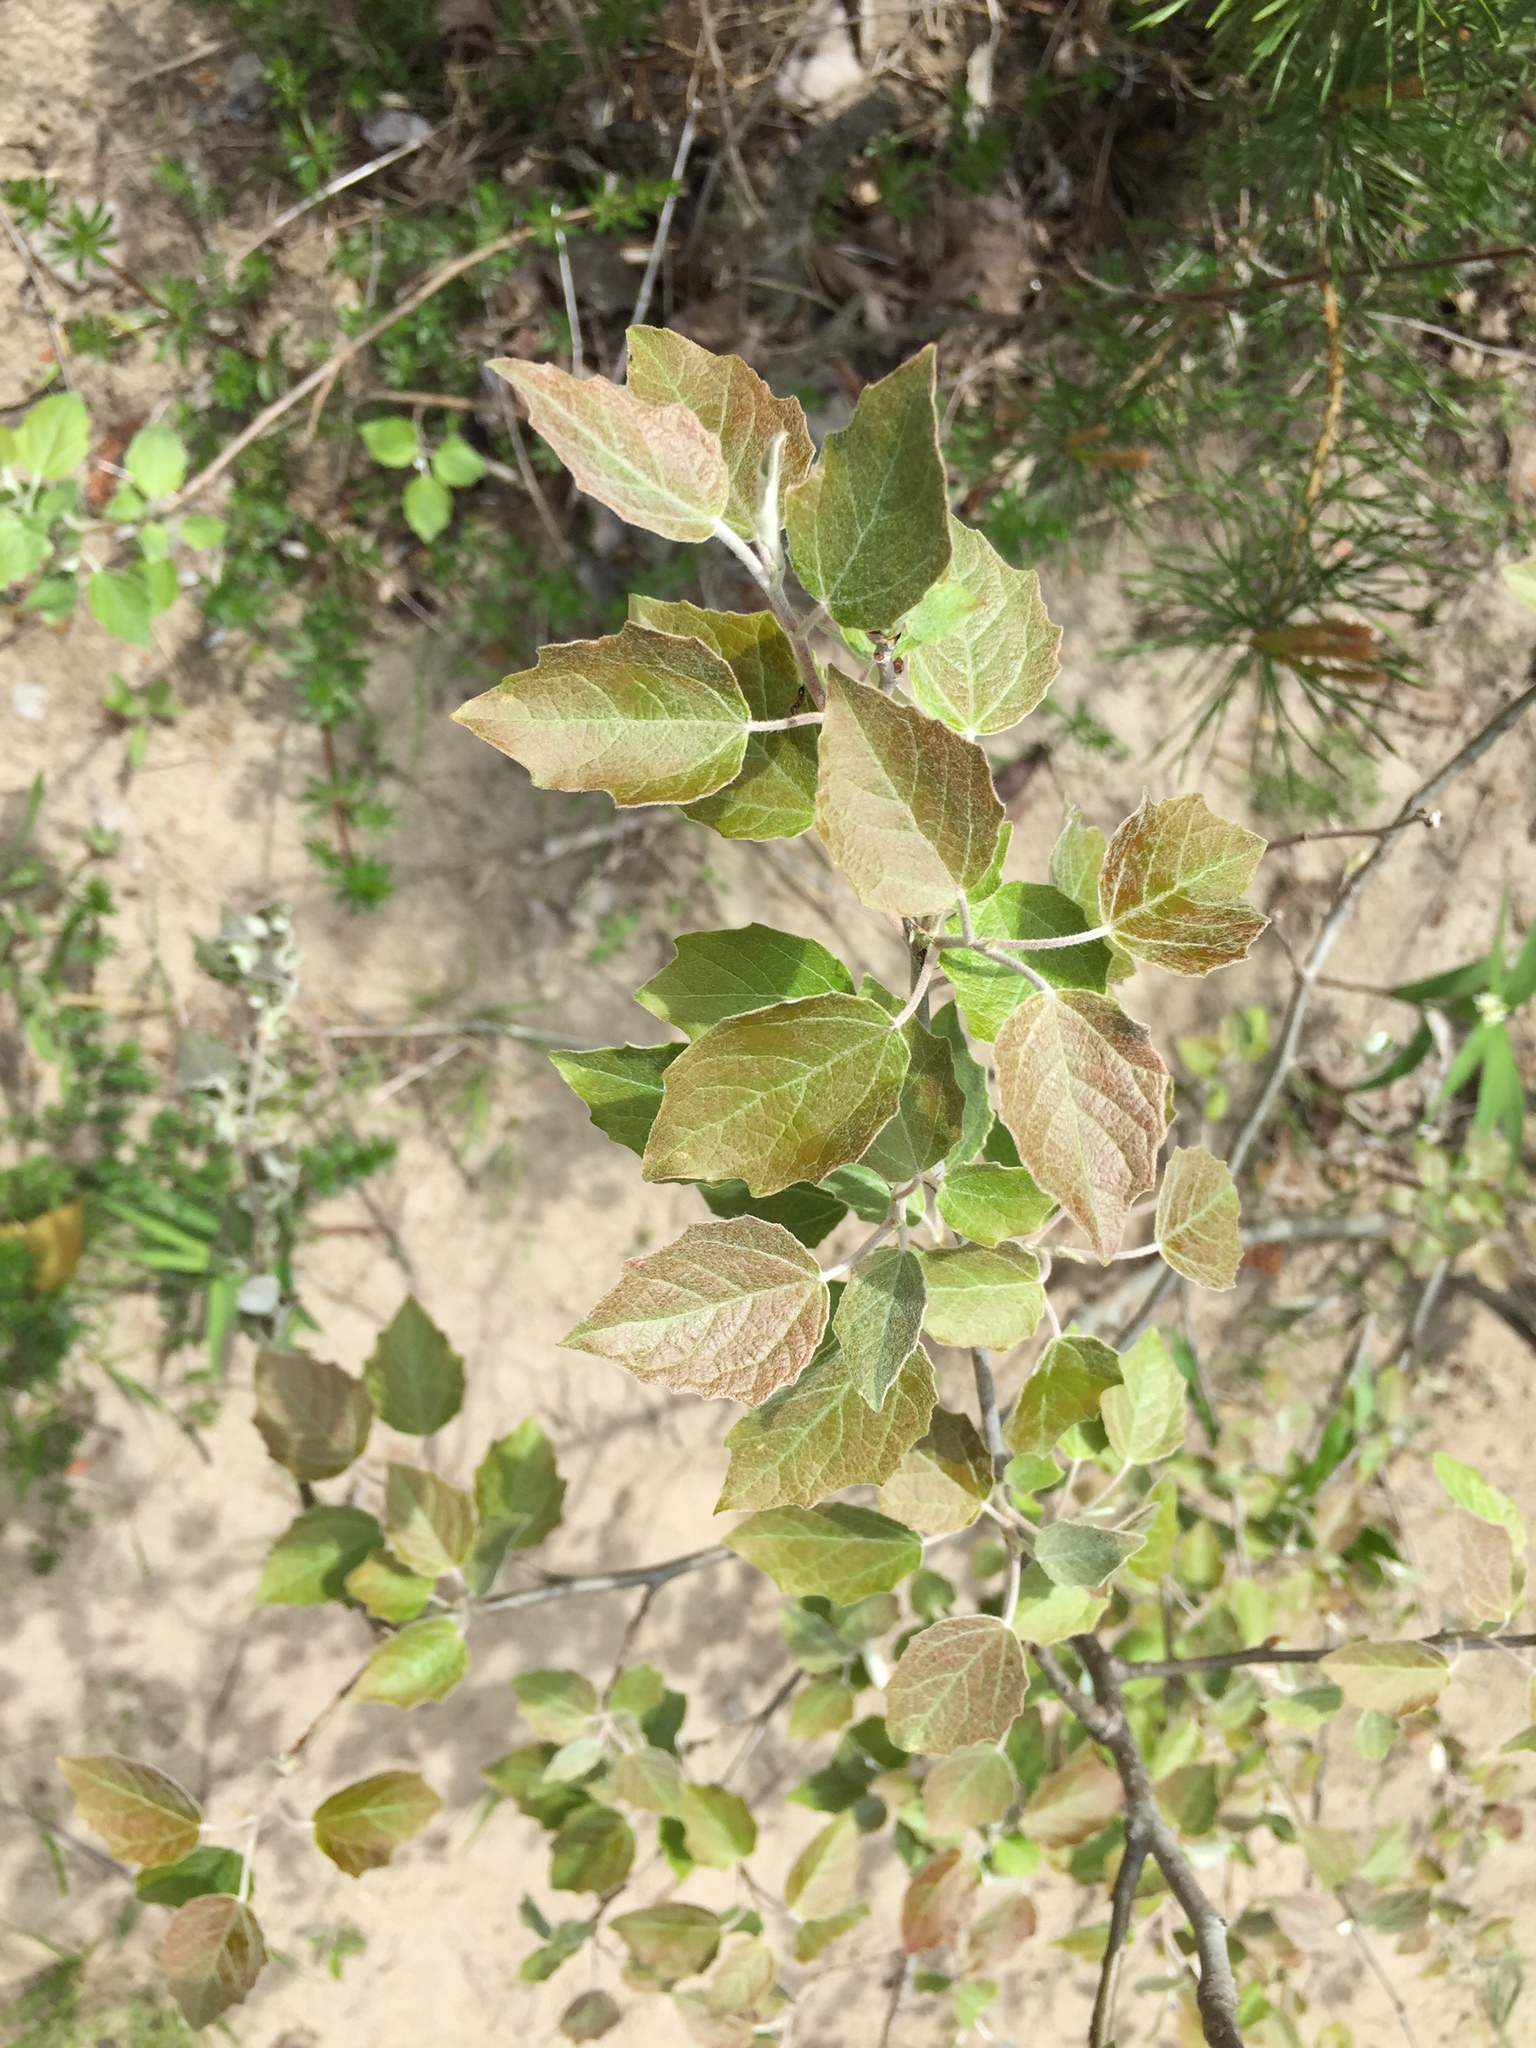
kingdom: Plantae
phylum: Tracheophyta
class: Magnoliopsida
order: Malpighiales
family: Salicaceae
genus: Populus
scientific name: Populus alba
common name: White poplar
